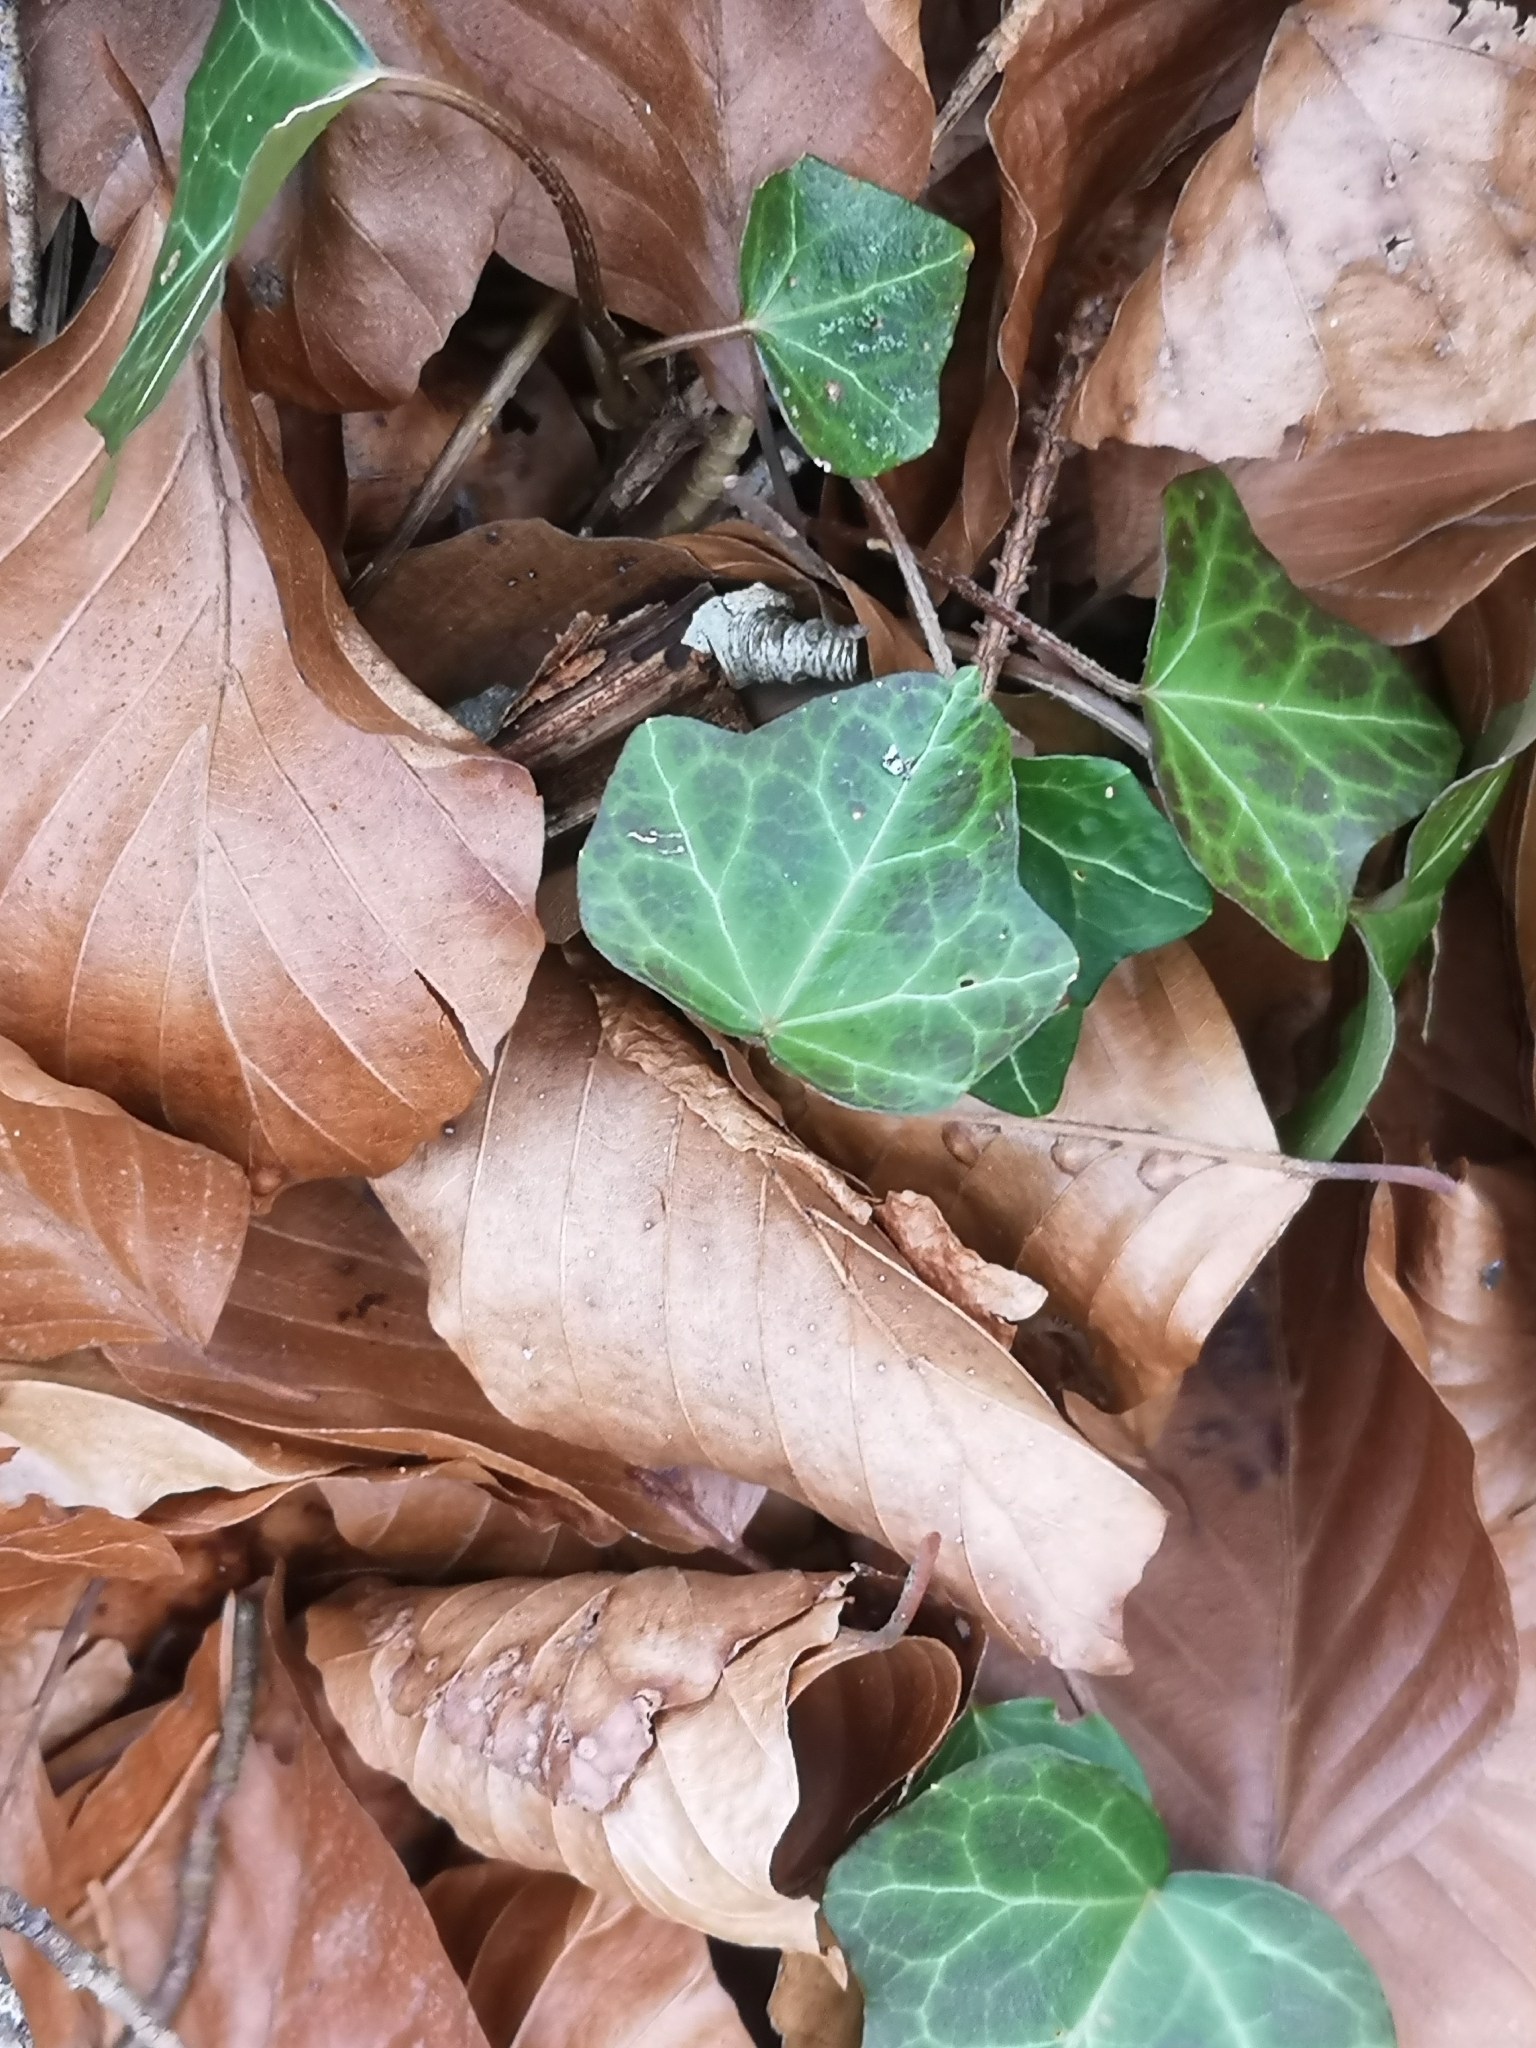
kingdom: Plantae
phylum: Tracheophyta
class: Magnoliopsida
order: Apiales
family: Araliaceae
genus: Hedera
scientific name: Hedera helix
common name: Ivy
